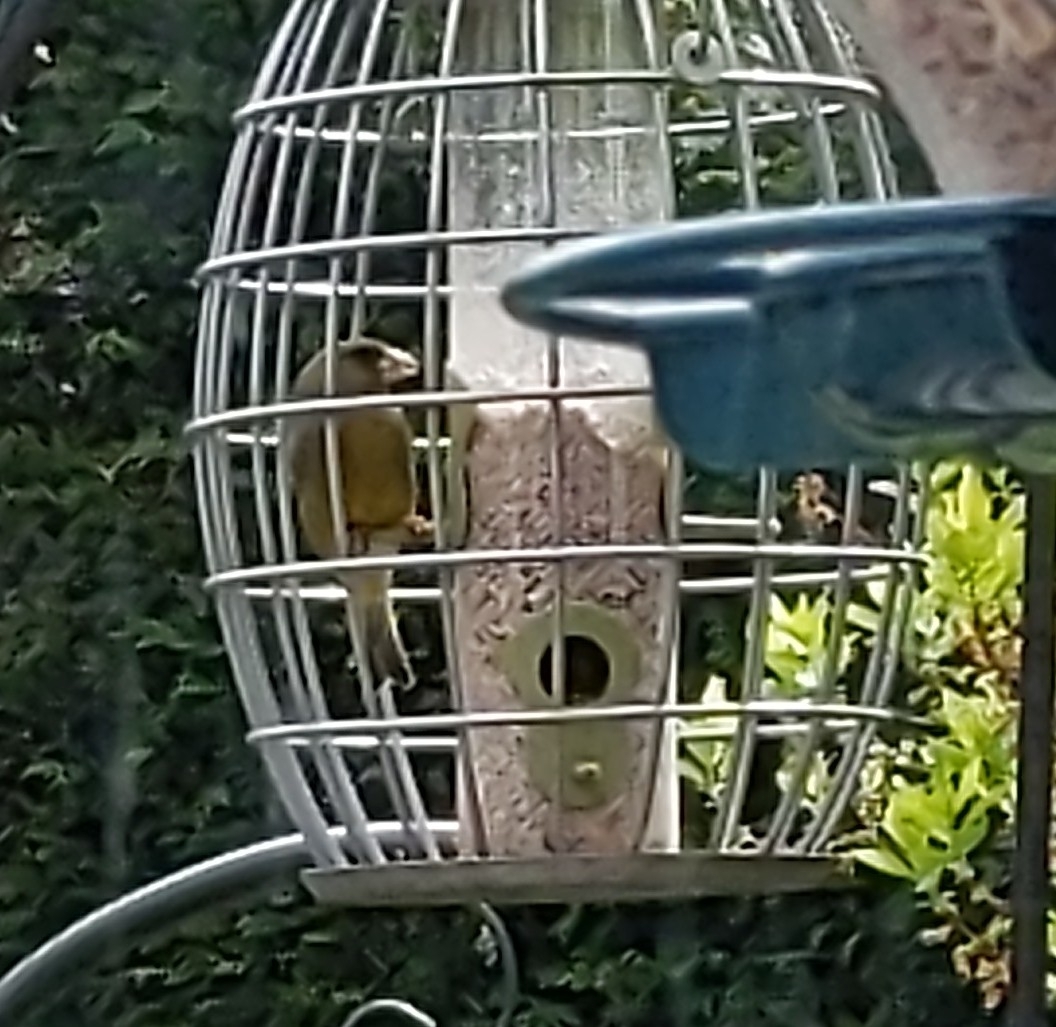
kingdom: Plantae
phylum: Tracheophyta
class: Liliopsida
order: Poales
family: Poaceae
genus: Chloris
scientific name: Chloris chloris
